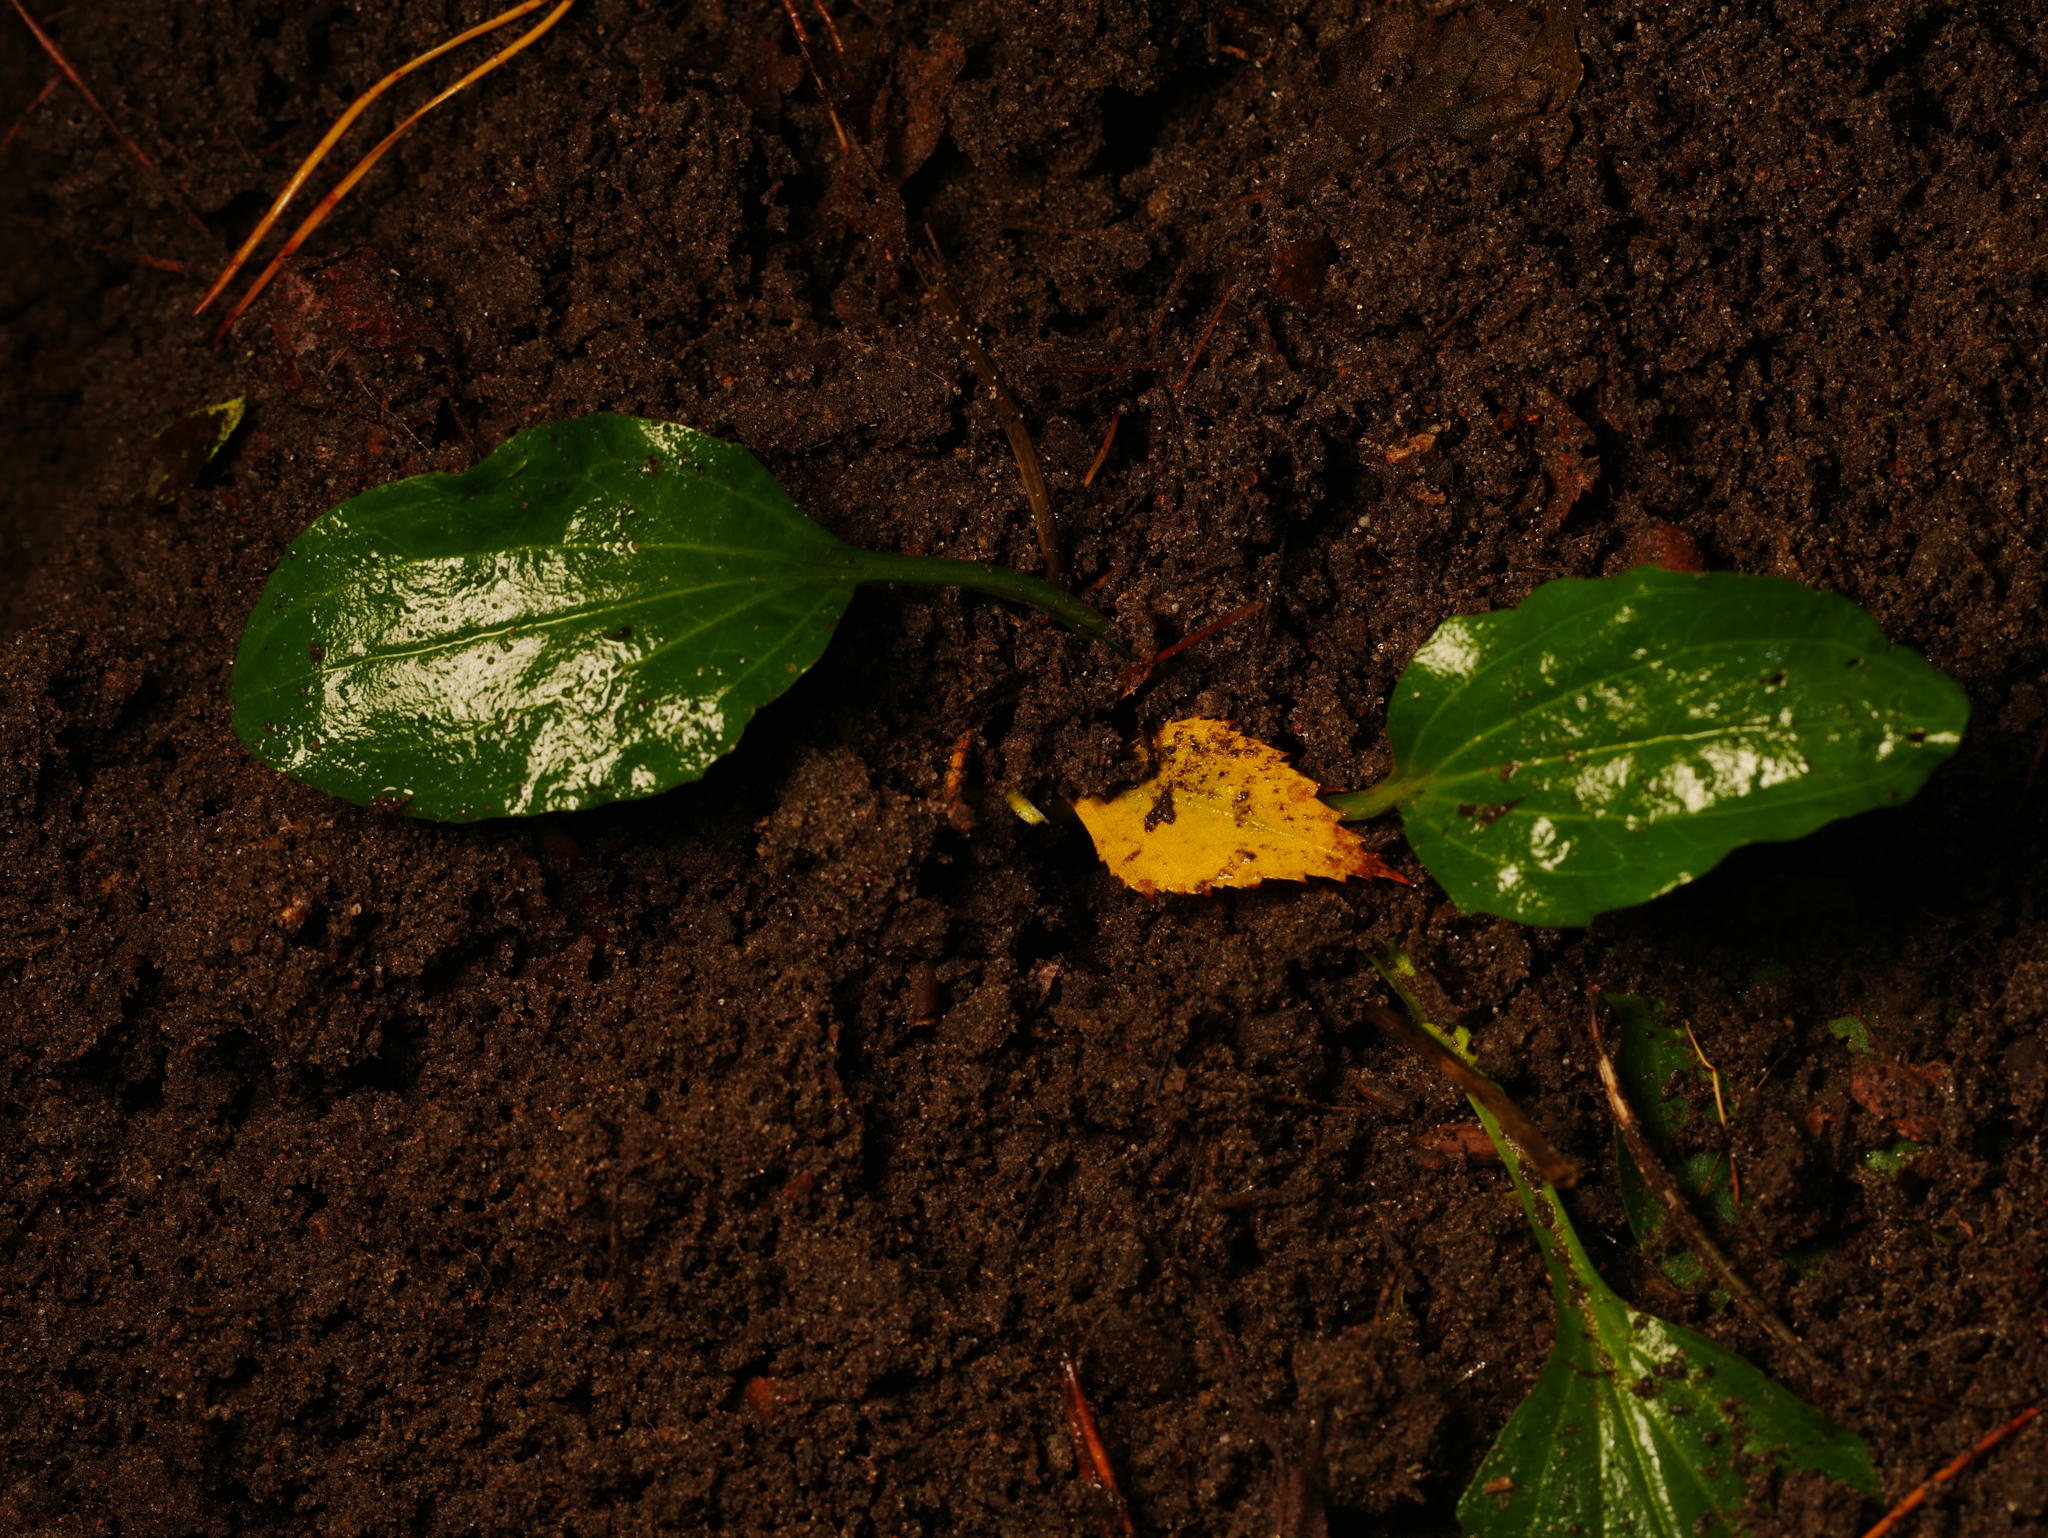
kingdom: Plantae
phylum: Tracheophyta
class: Magnoliopsida
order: Lamiales
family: Plantaginaceae
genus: Plantago
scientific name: Plantago major
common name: Common plantain
